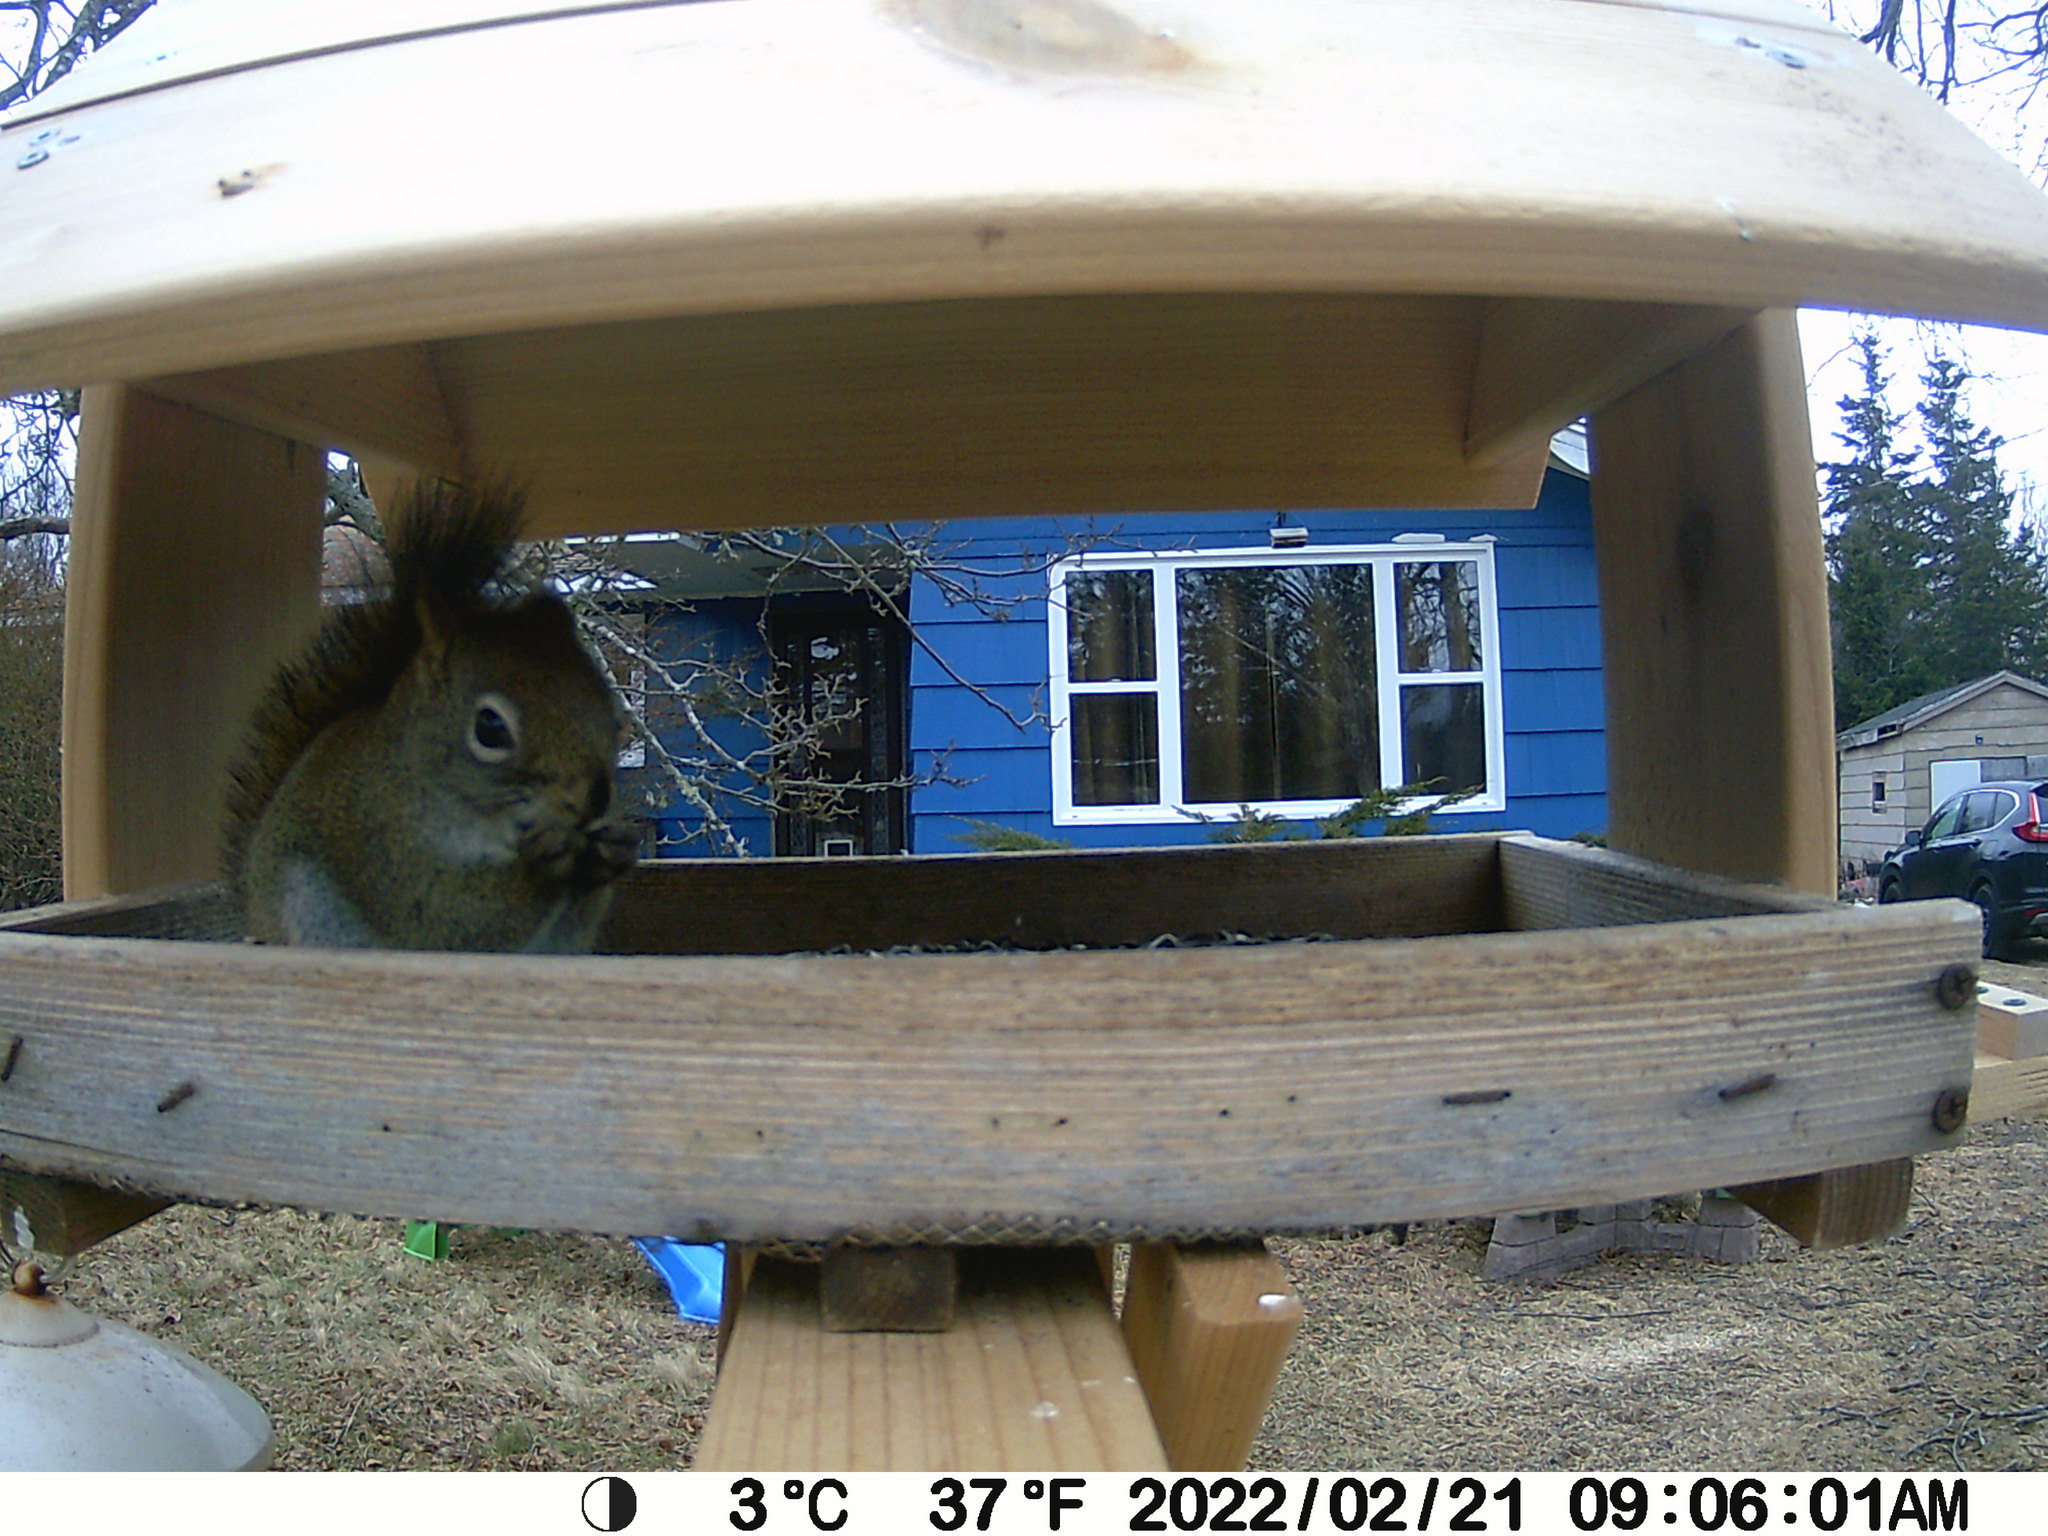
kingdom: Animalia
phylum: Chordata
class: Mammalia
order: Rodentia
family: Sciuridae
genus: Tamiasciurus
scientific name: Tamiasciurus hudsonicus
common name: Red squirrel
